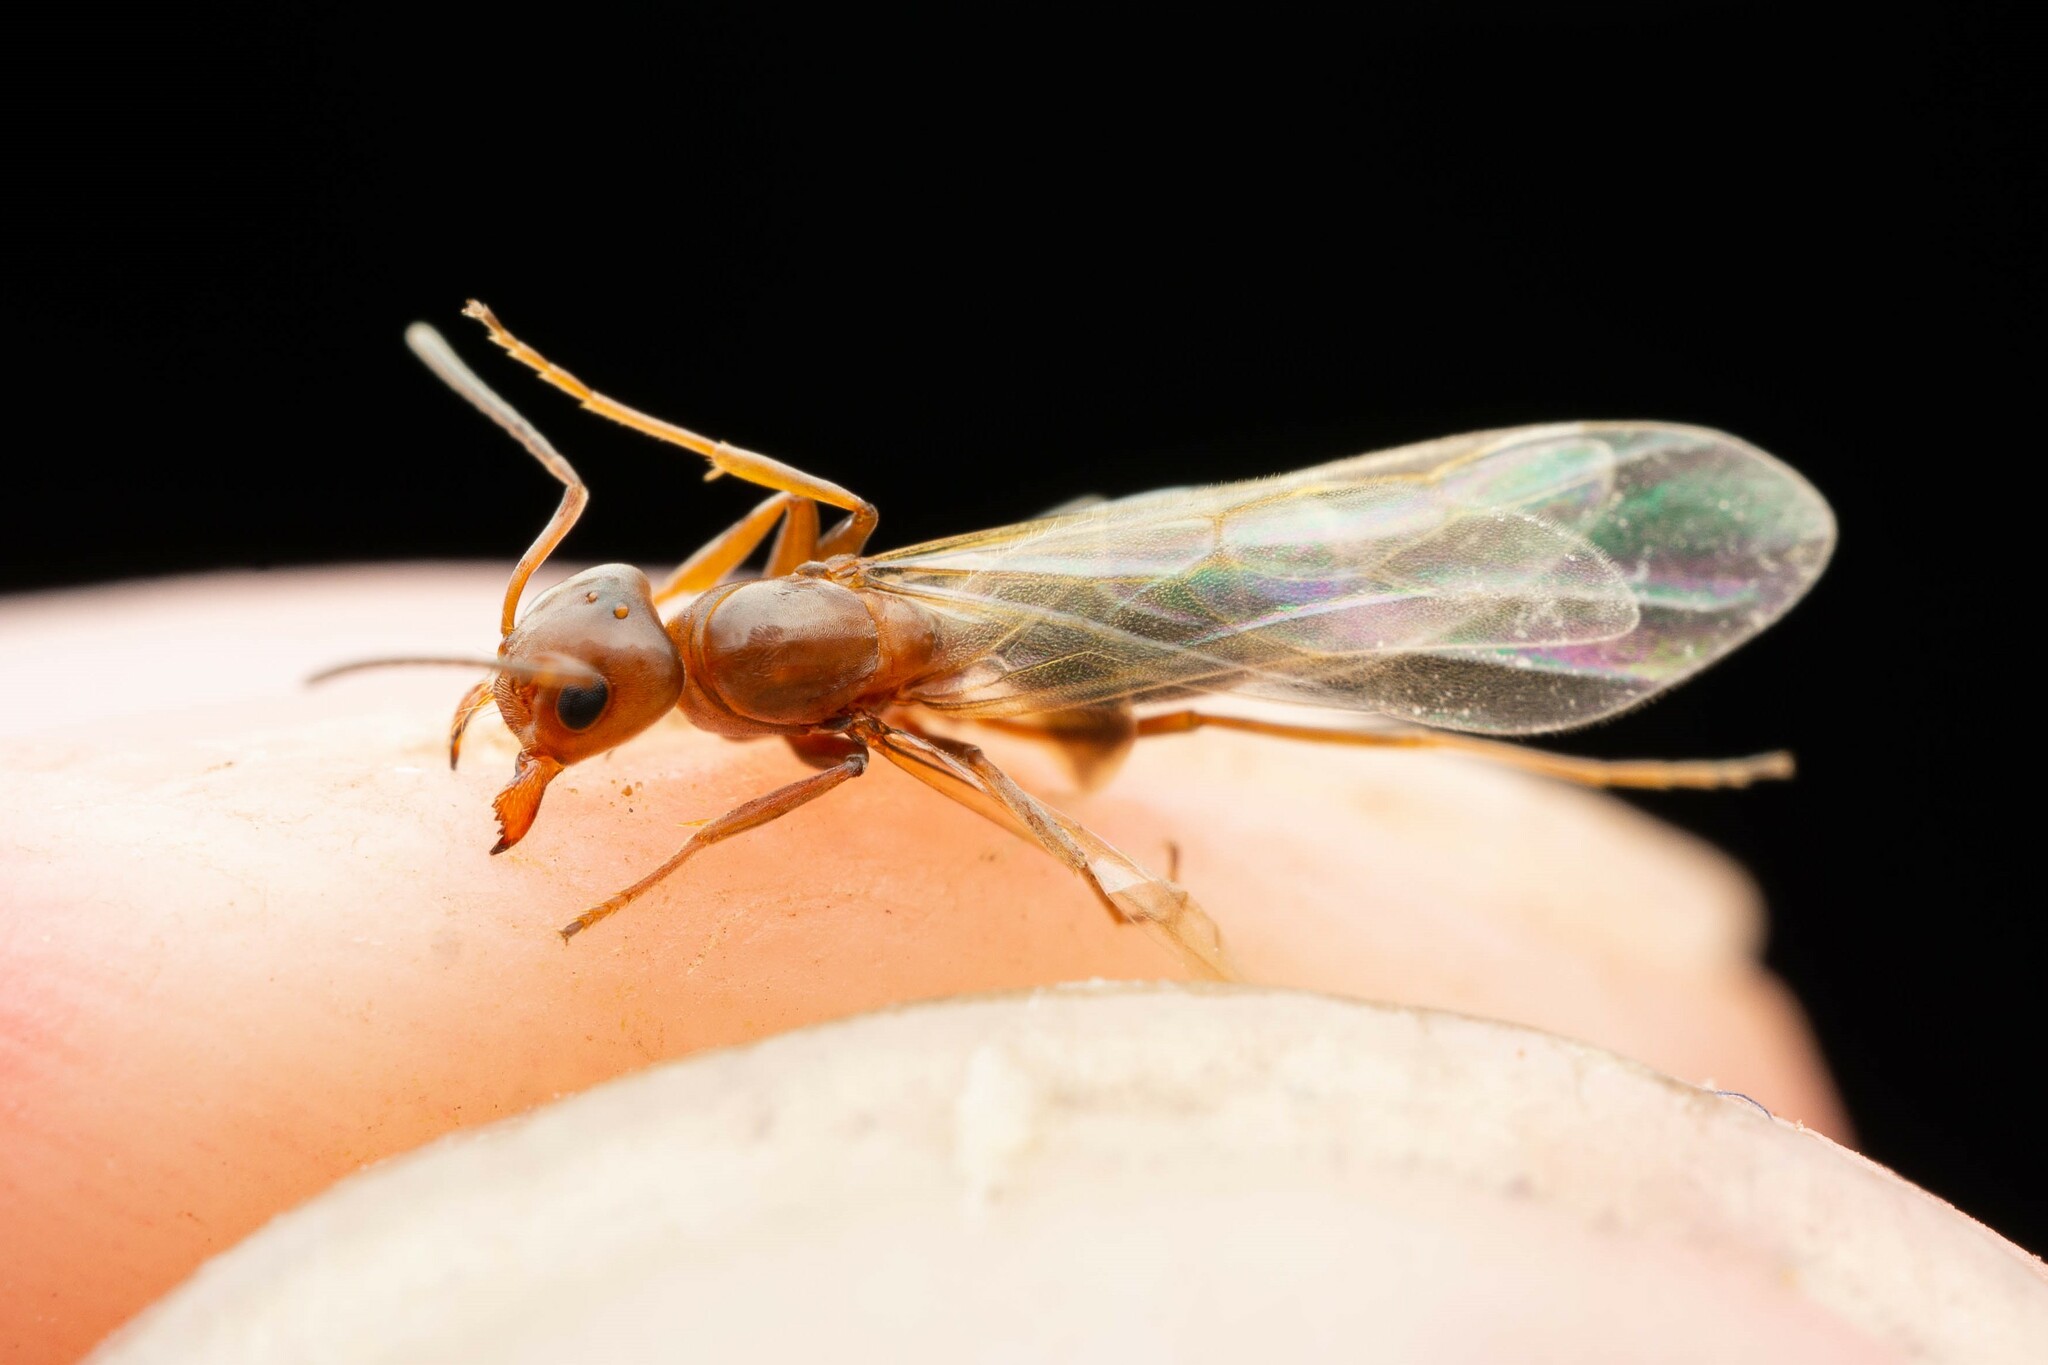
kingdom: Animalia
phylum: Arthropoda
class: Insecta
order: Hymenoptera
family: Formicidae
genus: Dorymyrmex
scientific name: Dorymyrmex
